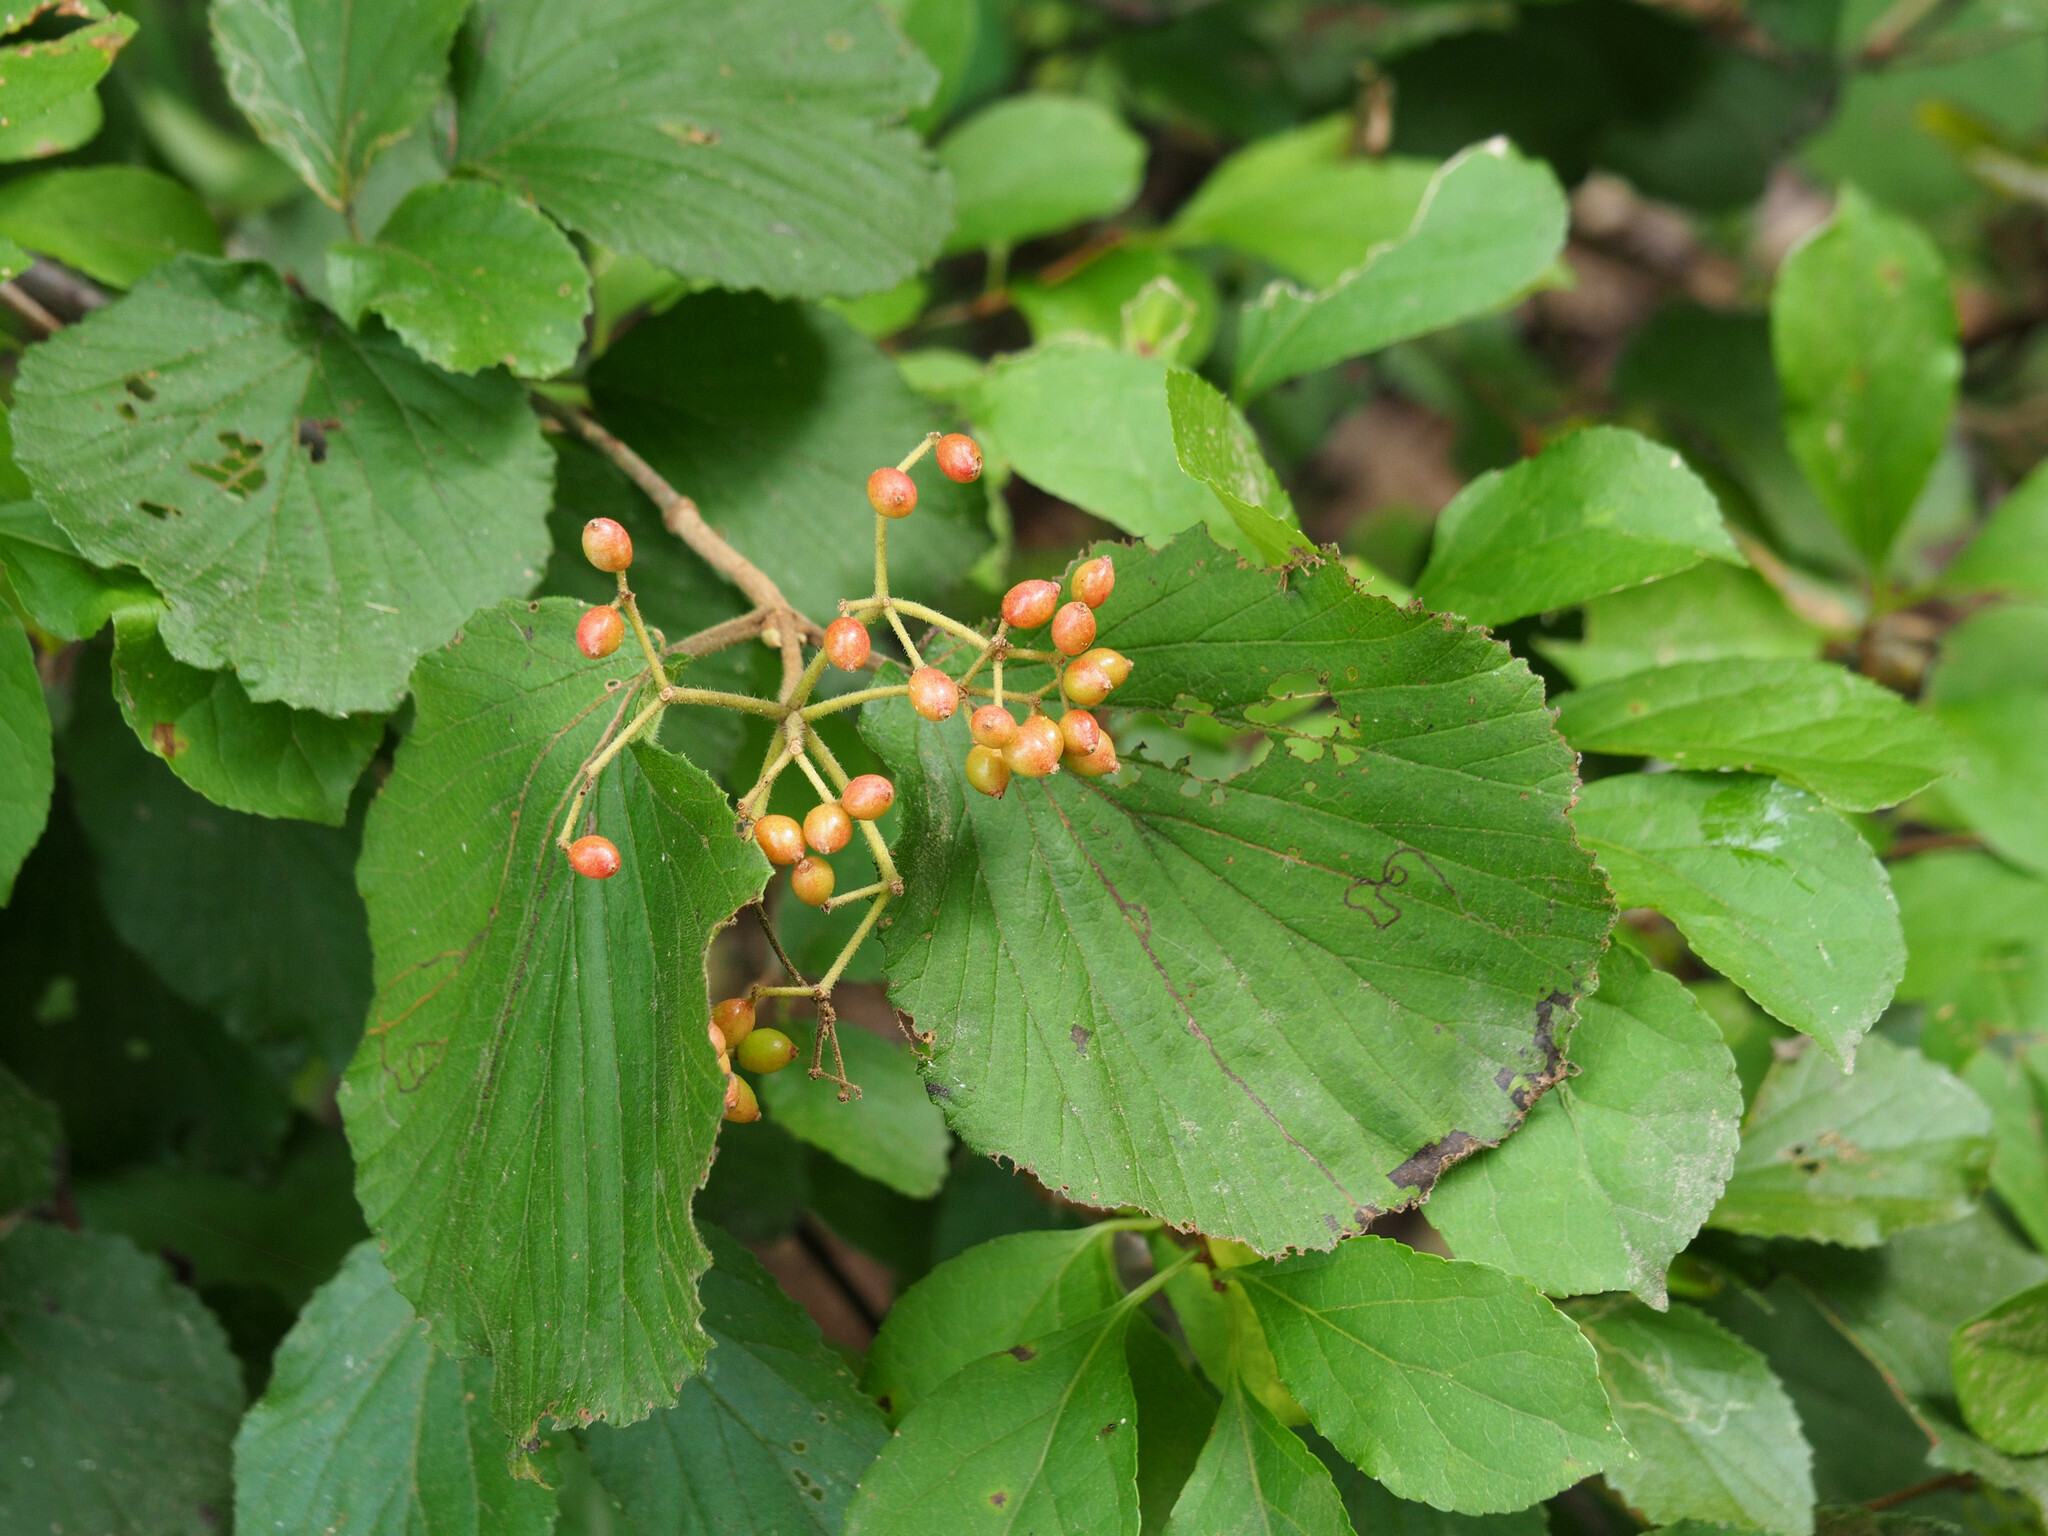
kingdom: Animalia
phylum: Arthropoda
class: Insecta
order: Lepidoptera
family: Gracillariidae
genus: Marmara
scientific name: Marmara viburnella
